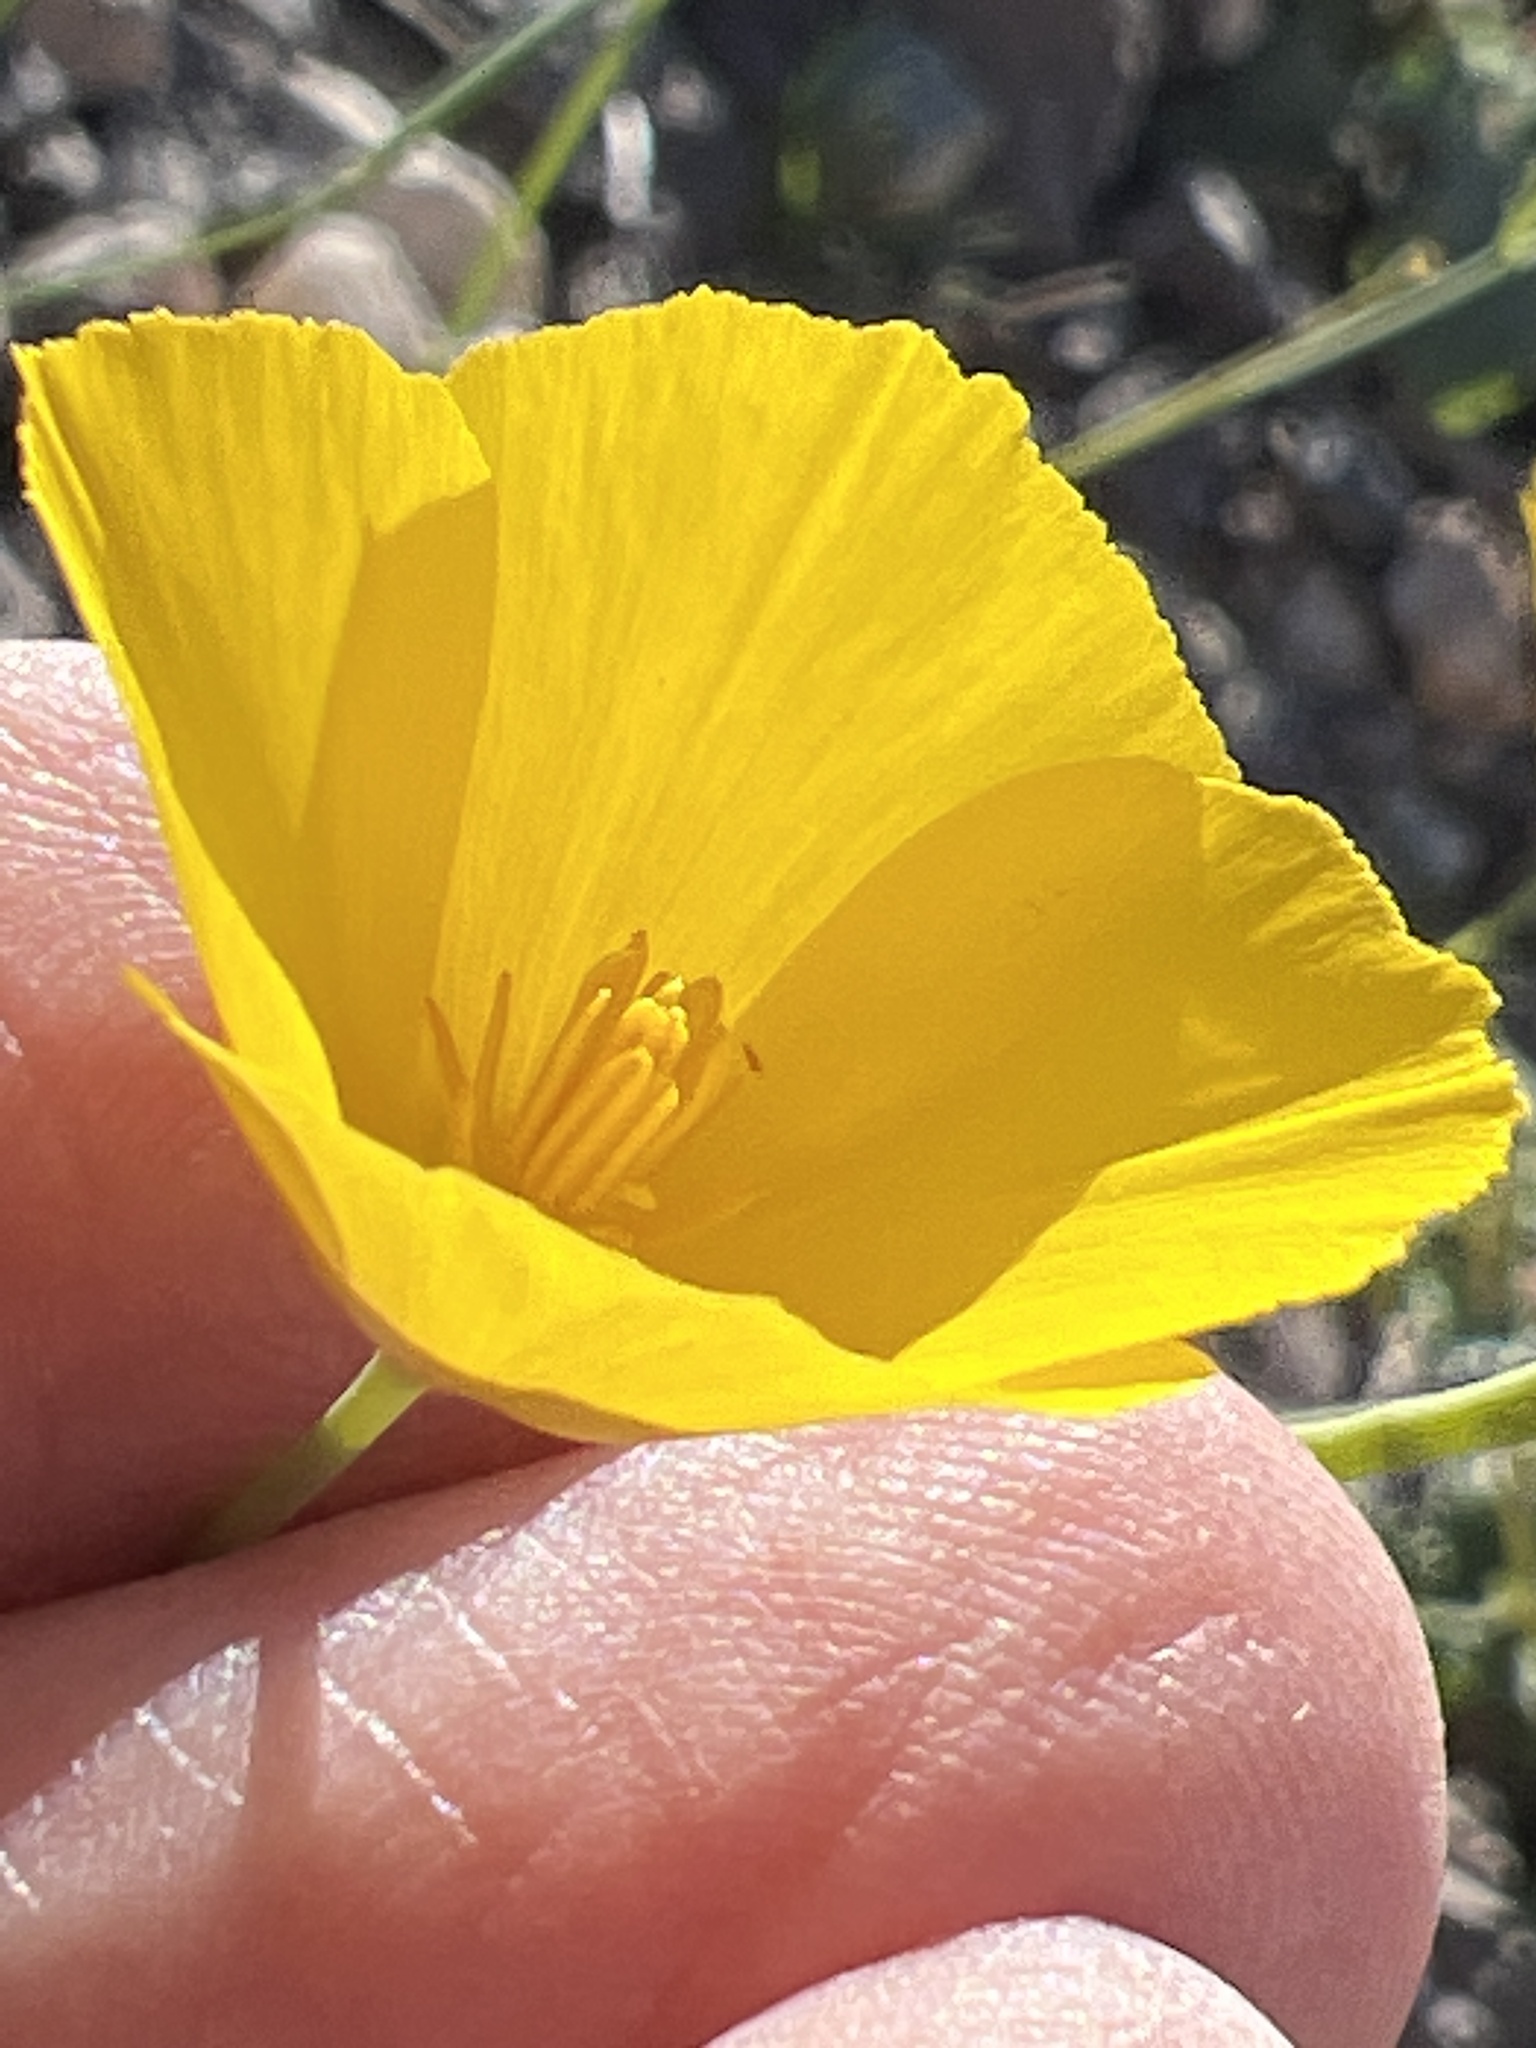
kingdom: Plantae
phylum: Tracheophyta
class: Magnoliopsida
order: Ranunculales
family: Papaveraceae
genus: Eschscholzia
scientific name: Eschscholzia parishii
